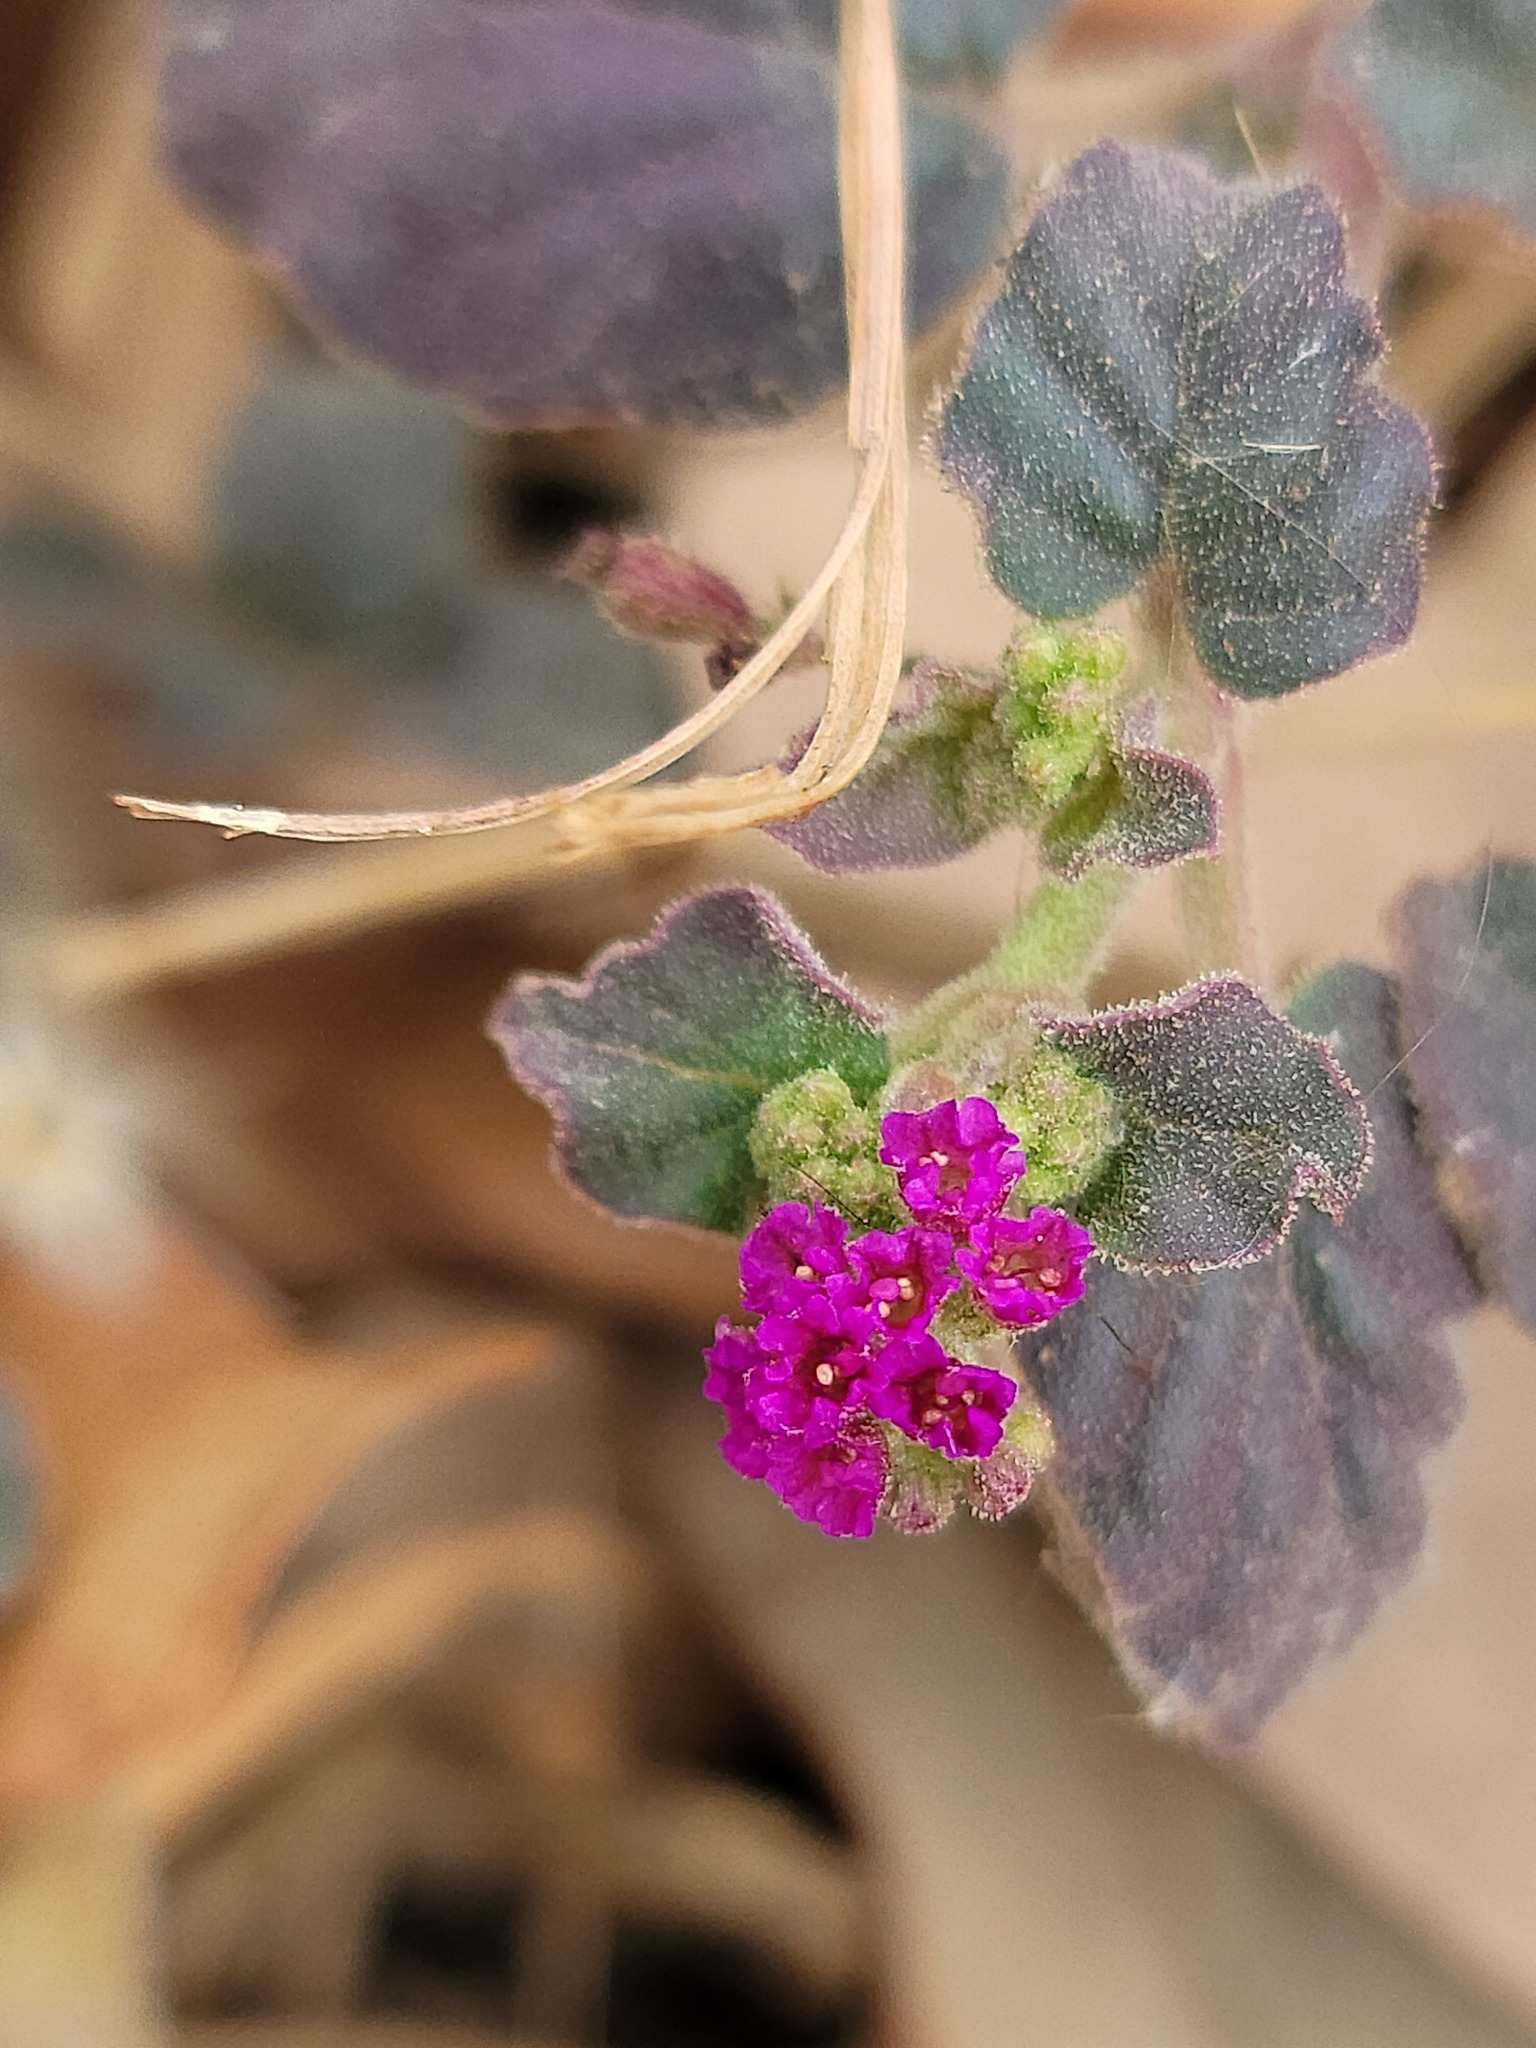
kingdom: Plantae
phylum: Tracheophyta
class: Magnoliopsida
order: Caryophyllales
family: Nyctaginaceae
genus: Boerhavia
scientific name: Boerhavia coccinea
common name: Scarlet spiderling
